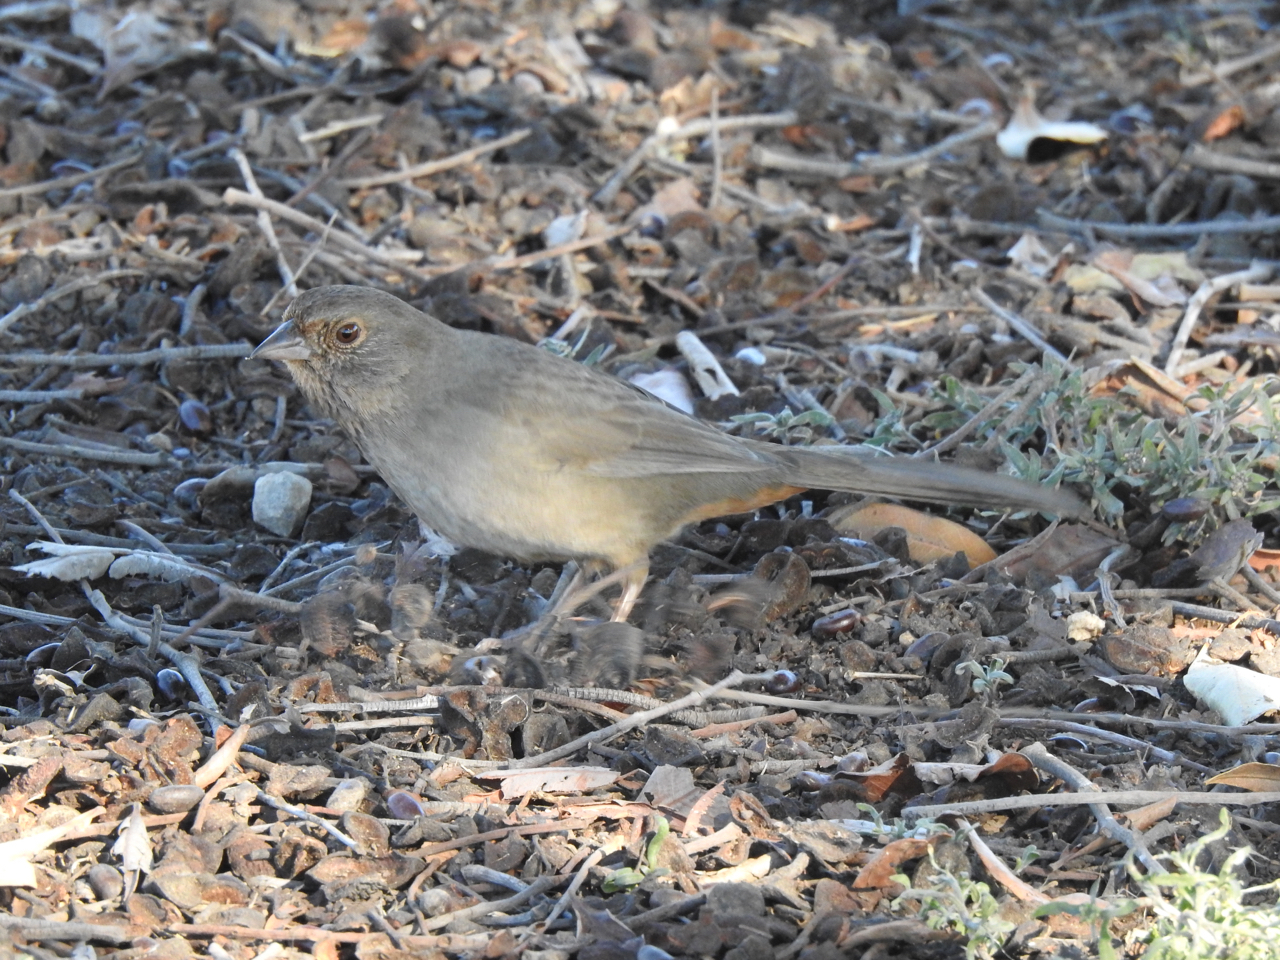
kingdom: Animalia
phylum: Chordata
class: Aves
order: Passeriformes
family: Passerellidae
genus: Melozone
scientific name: Melozone crissalis
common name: California towhee
